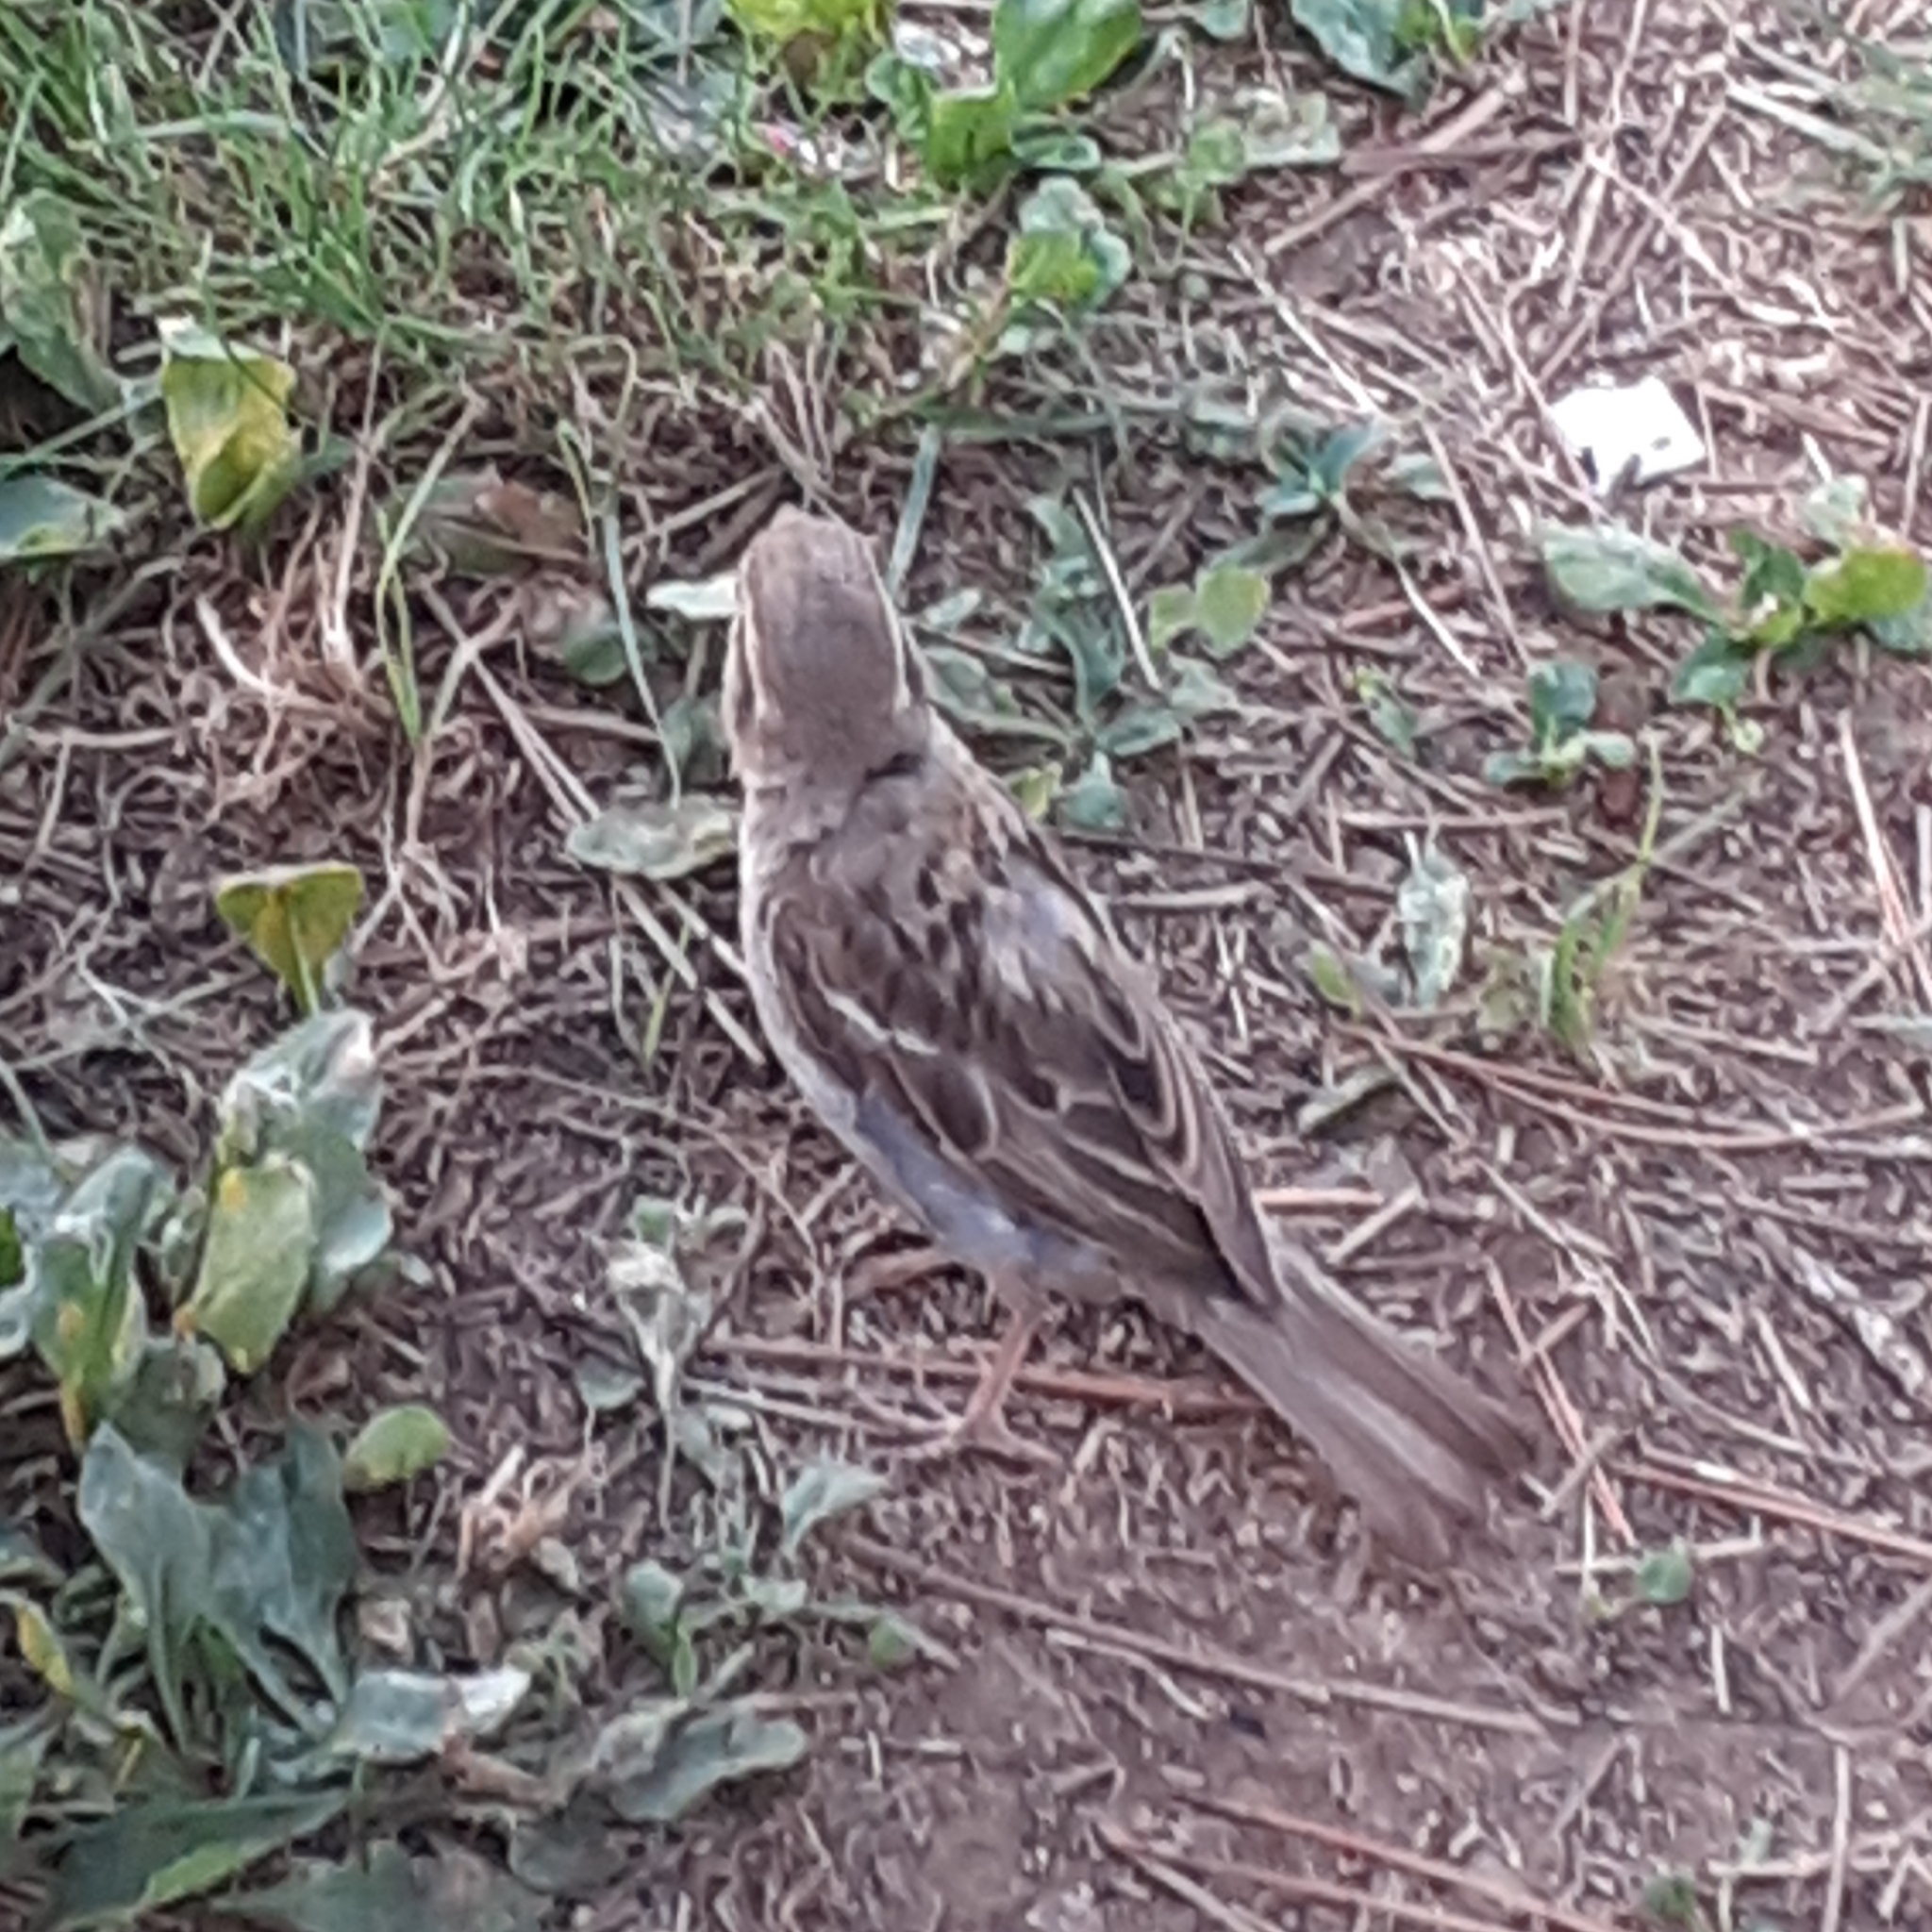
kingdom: Animalia
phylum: Chordata
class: Aves
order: Passeriformes
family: Passeridae
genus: Passer
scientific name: Passer domesticus
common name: House sparrow
